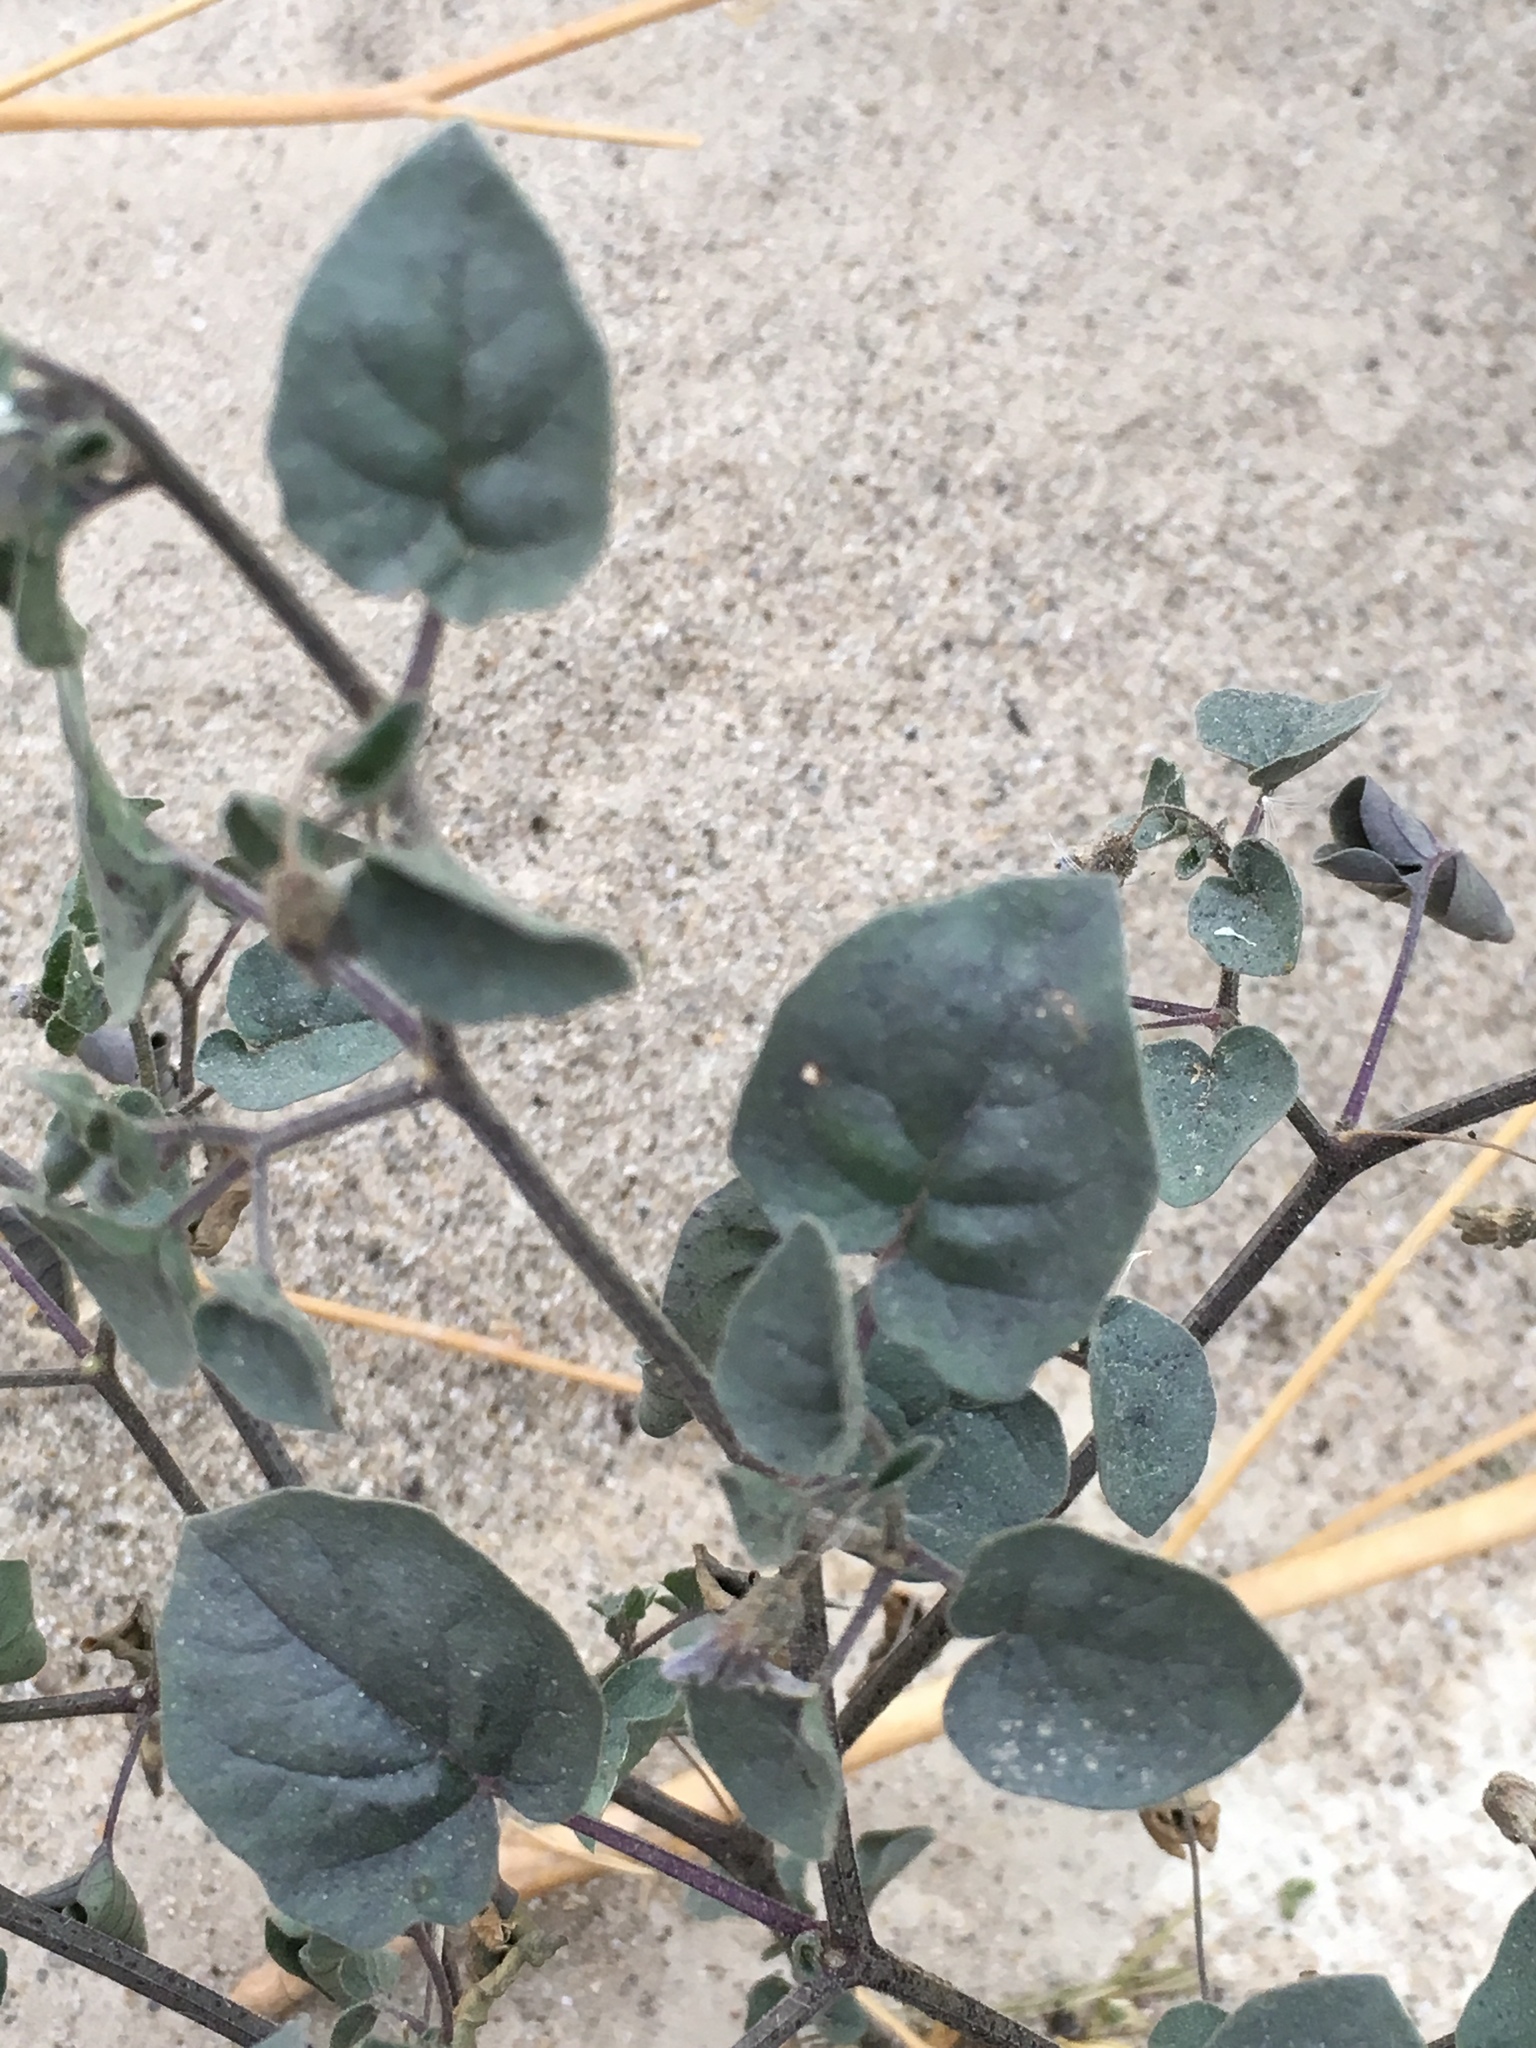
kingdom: Plantae
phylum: Tracheophyta
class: Magnoliopsida
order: Solanales
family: Solanaceae
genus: Physalis
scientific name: Physalis crassifolia
